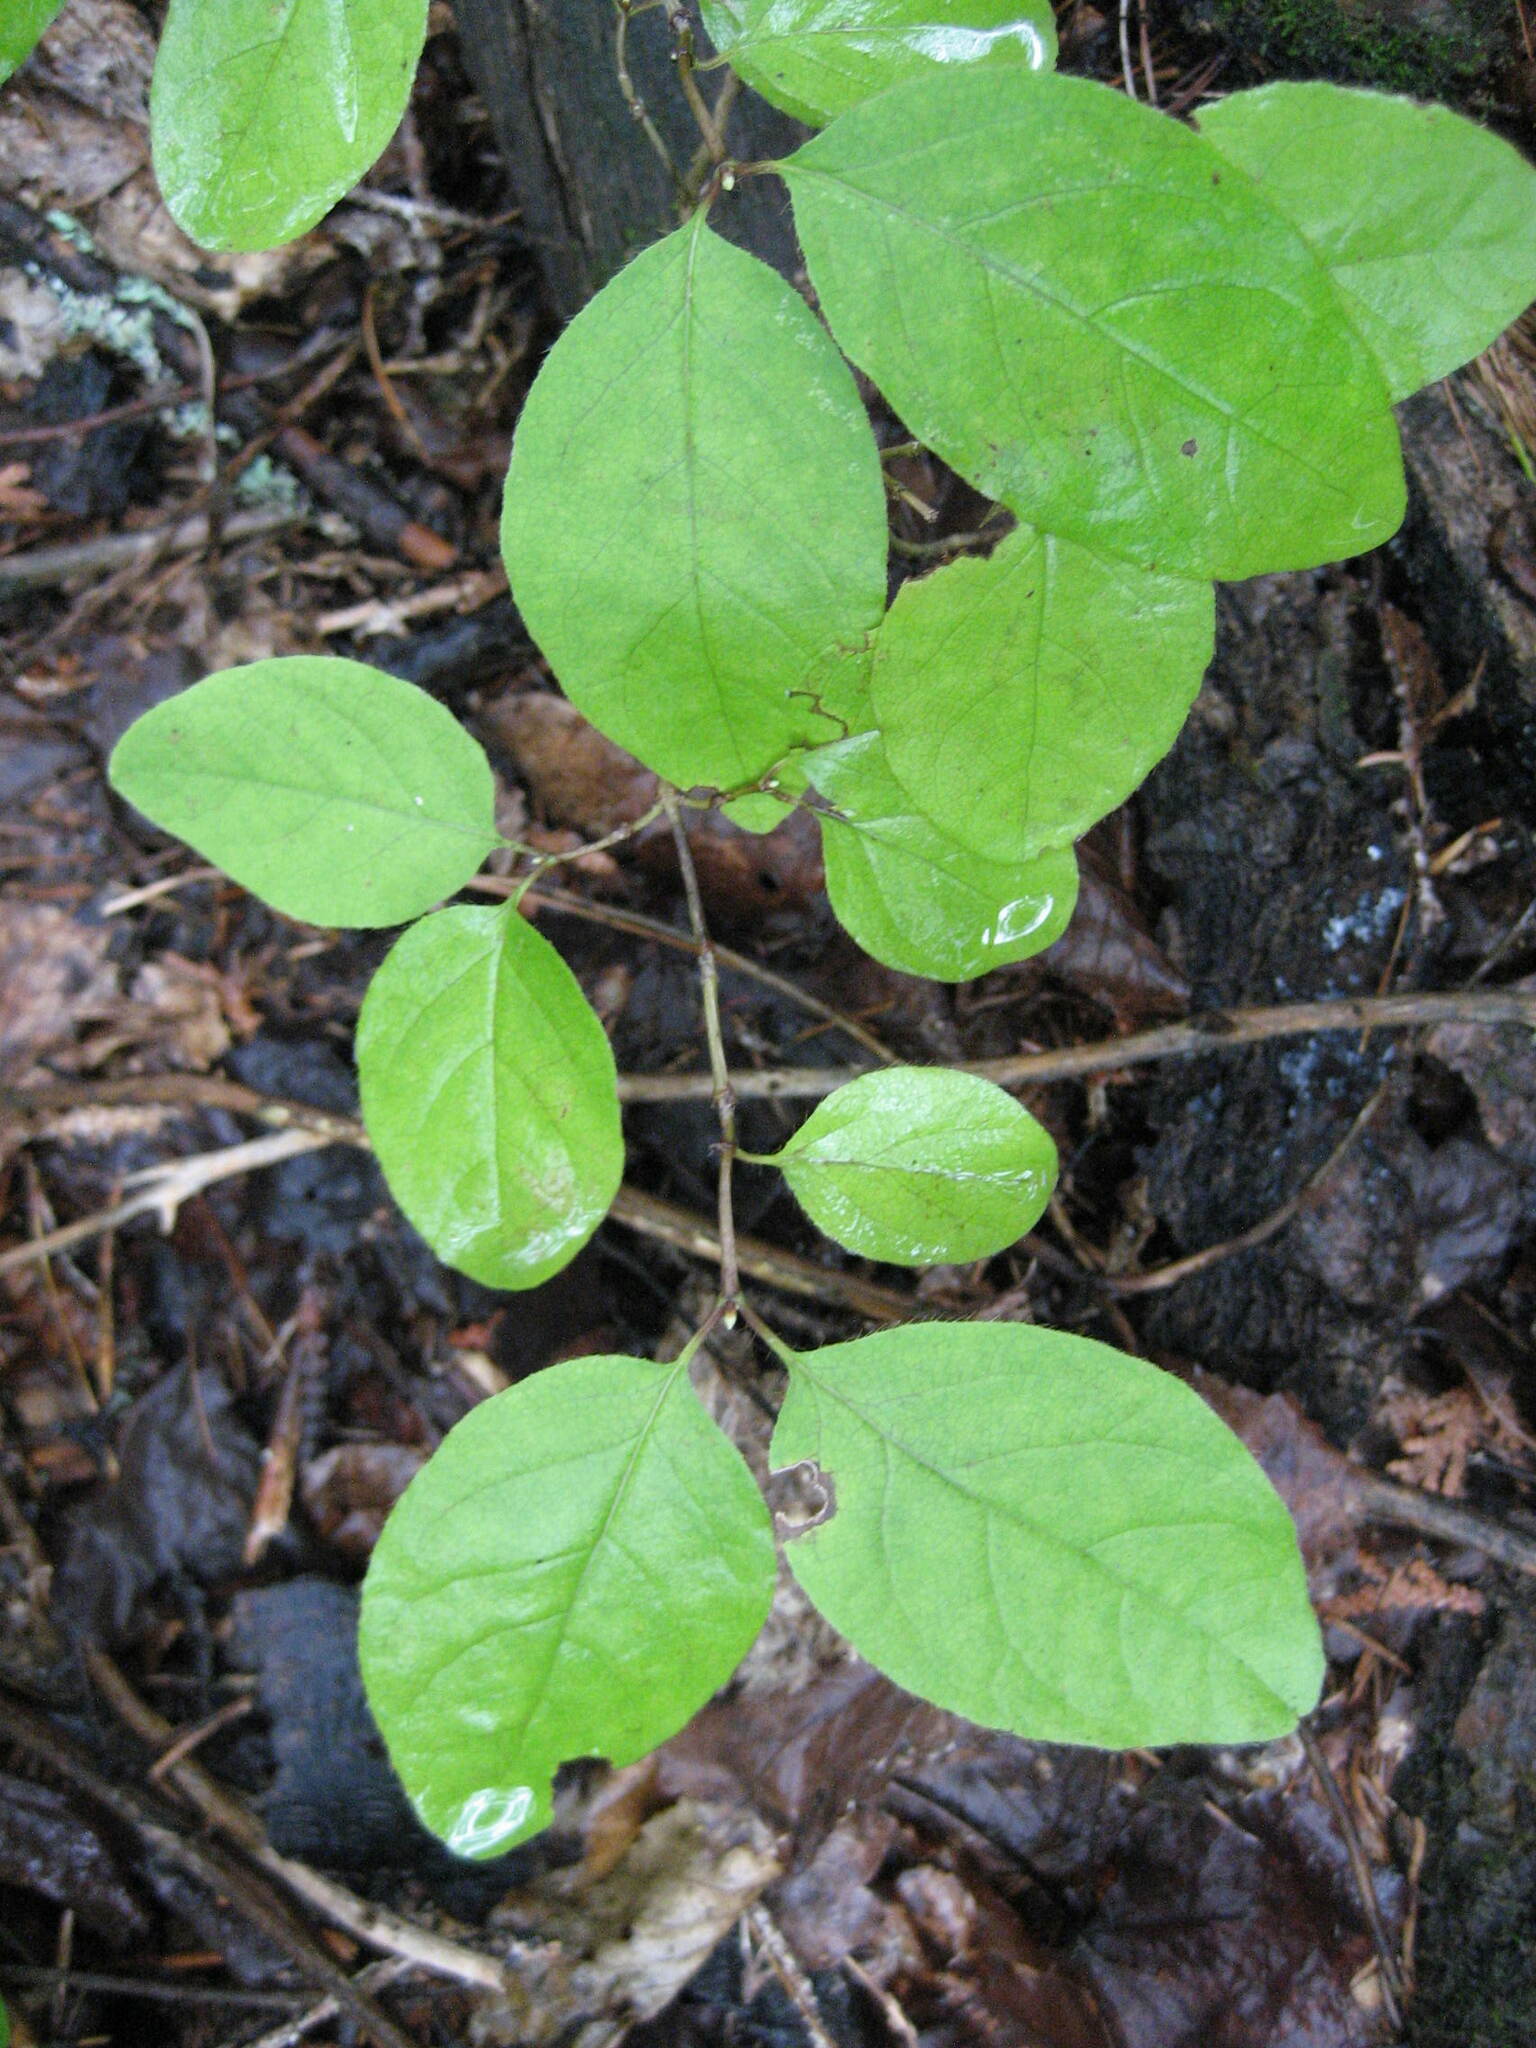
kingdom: Plantae
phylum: Tracheophyta
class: Magnoliopsida
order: Dipsacales
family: Caprifoliaceae
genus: Lonicera
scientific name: Lonicera canadensis
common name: American fly-honeysuckle
